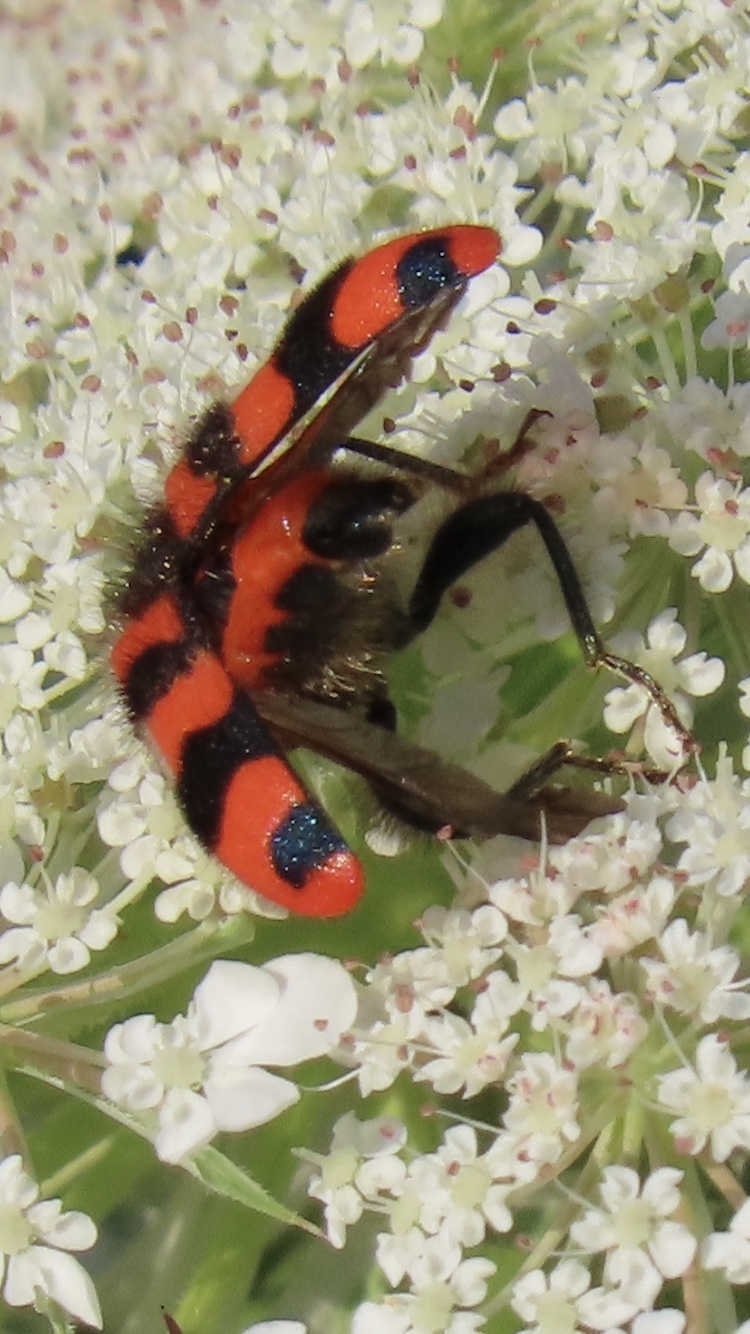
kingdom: Animalia
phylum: Arthropoda
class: Insecta
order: Coleoptera
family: Cleridae
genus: Trichodes
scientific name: Trichodes alvearius
